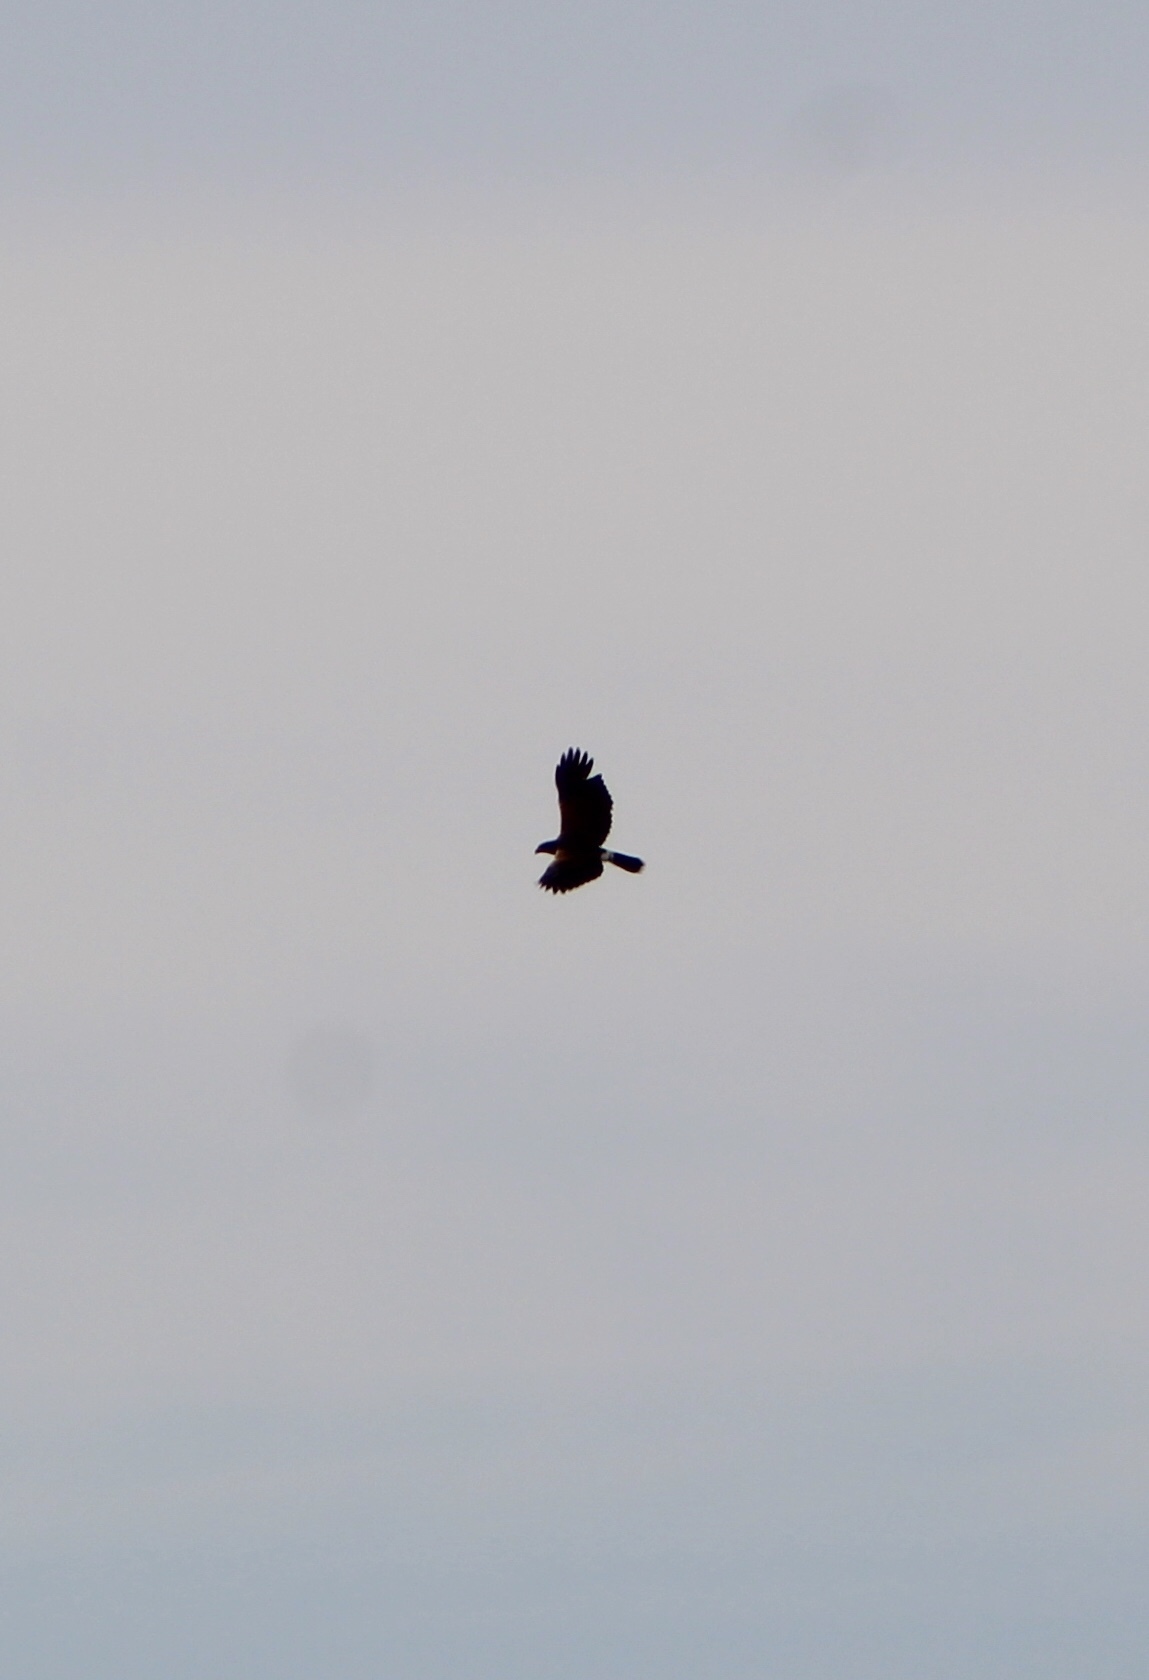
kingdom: Animalia
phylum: Chordata
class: Aves
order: Accipitriformes
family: Accipitridae
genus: Parabuteo
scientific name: Parabuteo unicinctus
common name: Harris's hawk
